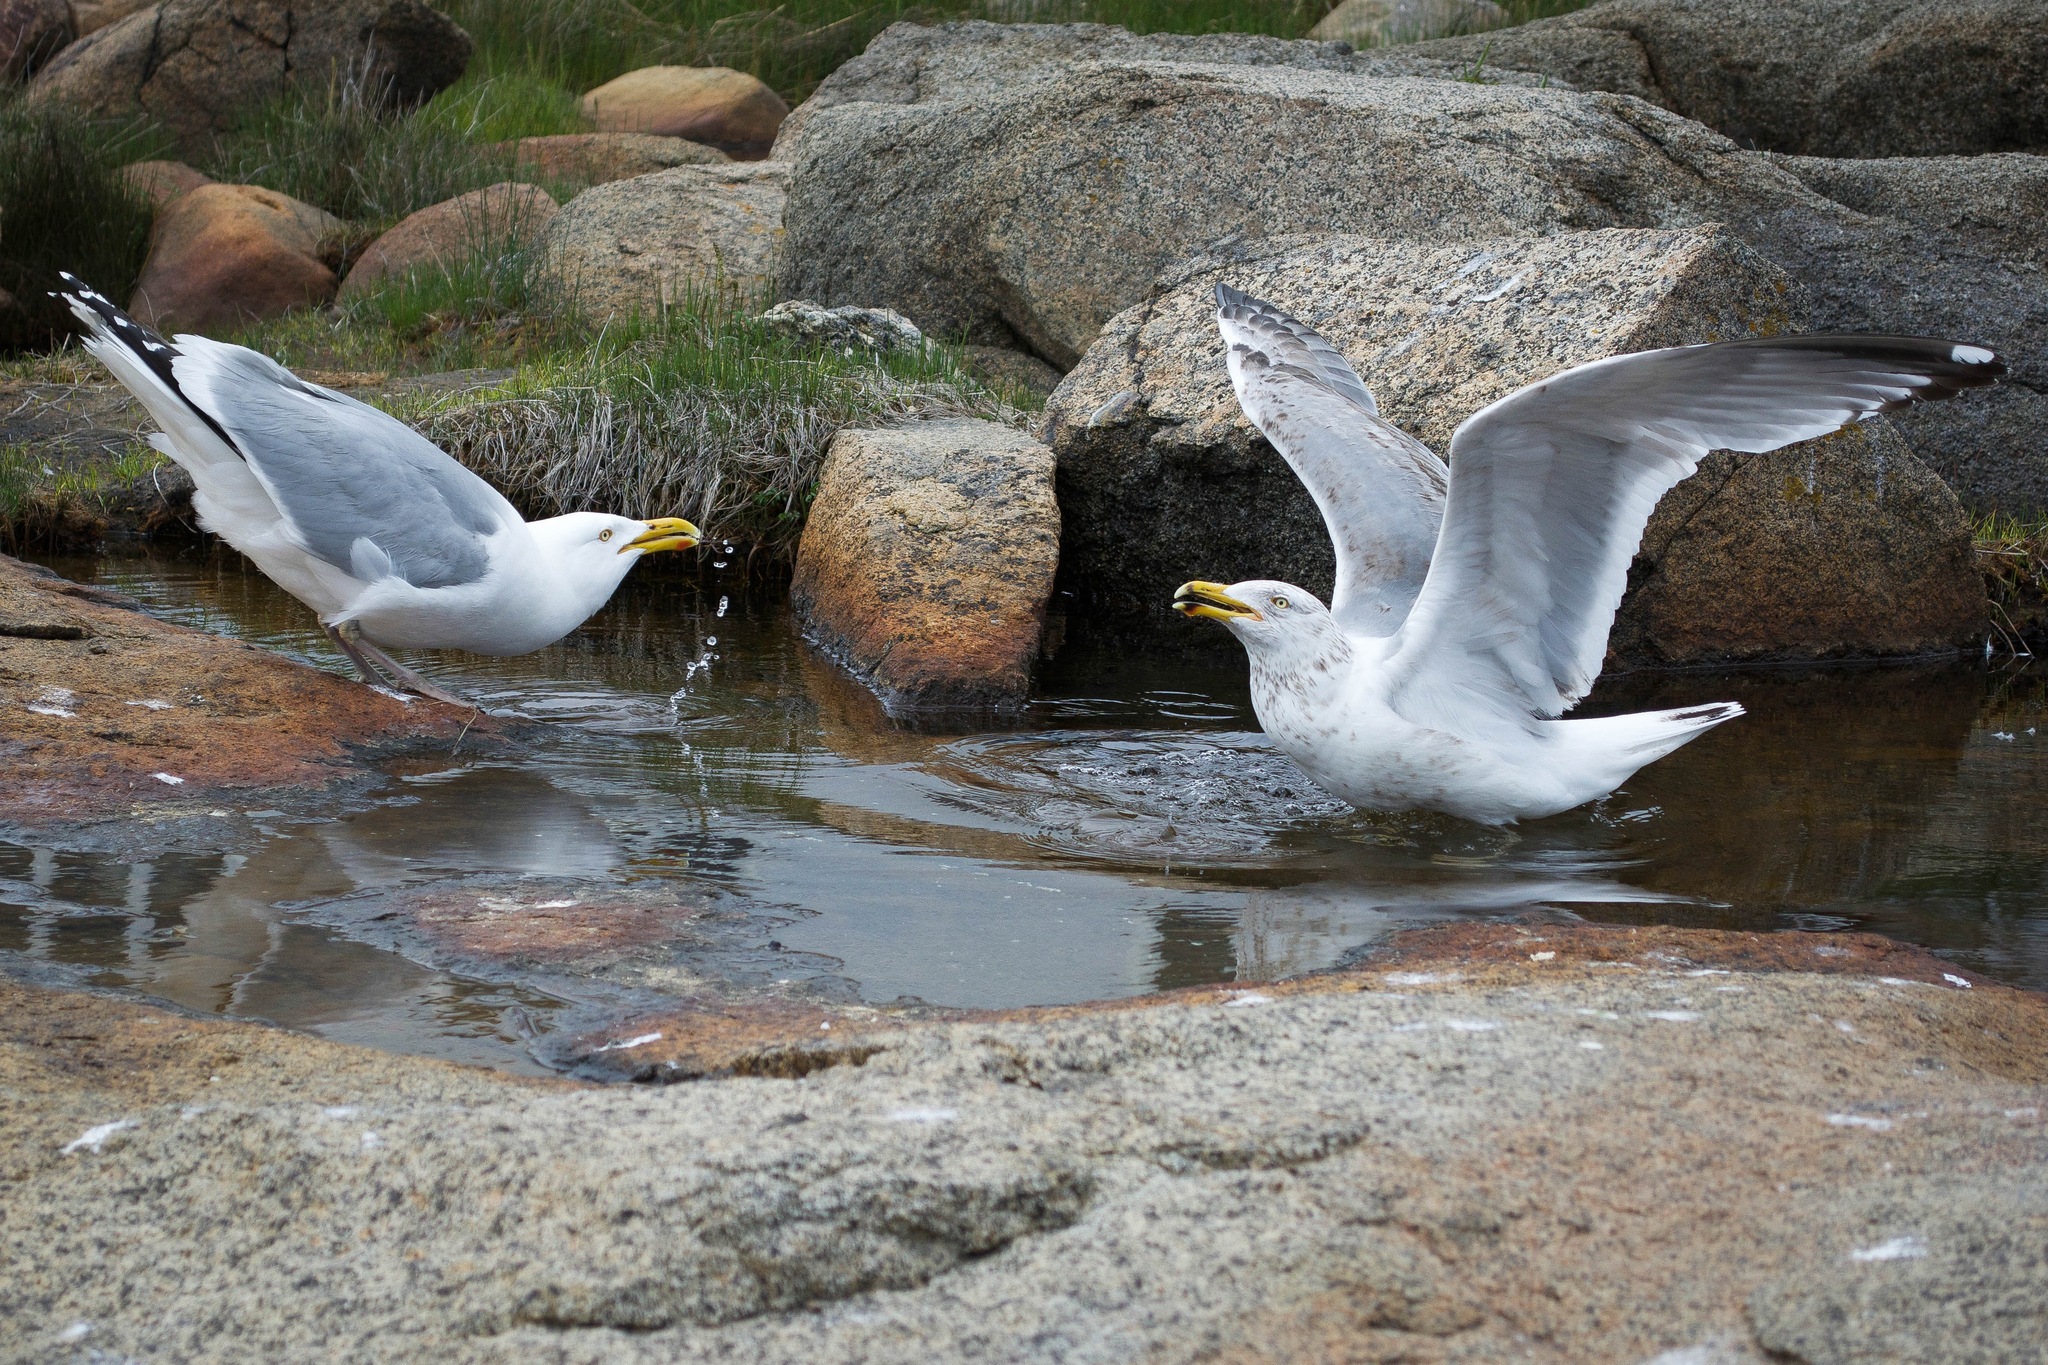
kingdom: Animalia
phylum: Chordata
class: Aves
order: Charadriiformes
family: Laridae
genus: Larus
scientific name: Larus argentatus
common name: Herring gull
